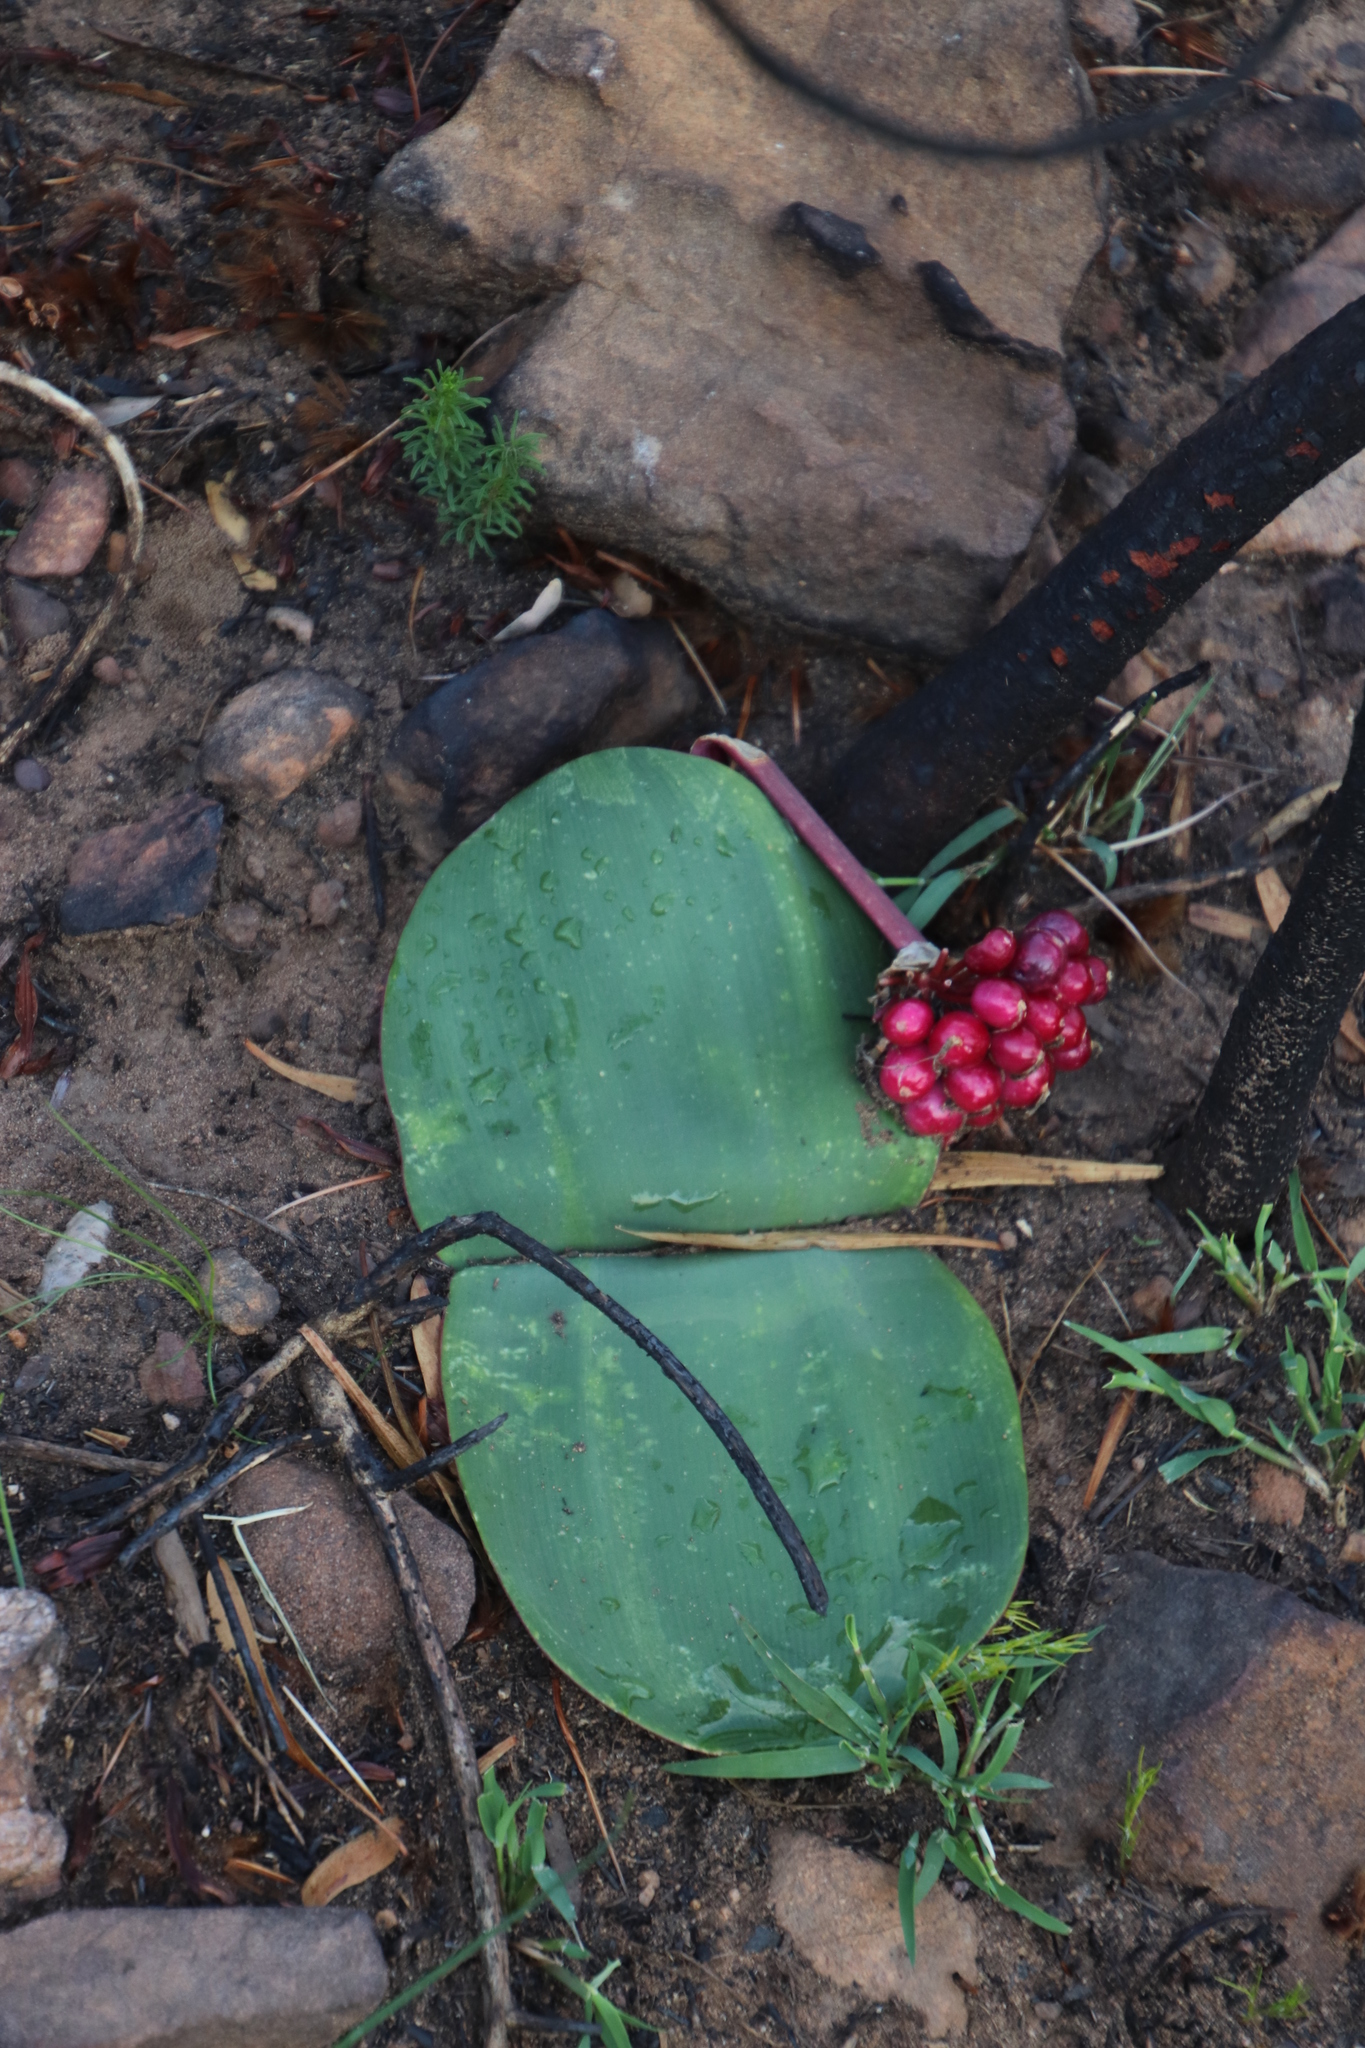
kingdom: Plantae
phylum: Tracheophyta
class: Liliopsida
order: Asparagales
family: Amaryllidaceae
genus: Haemanthus
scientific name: Haemanthus sanguineus
